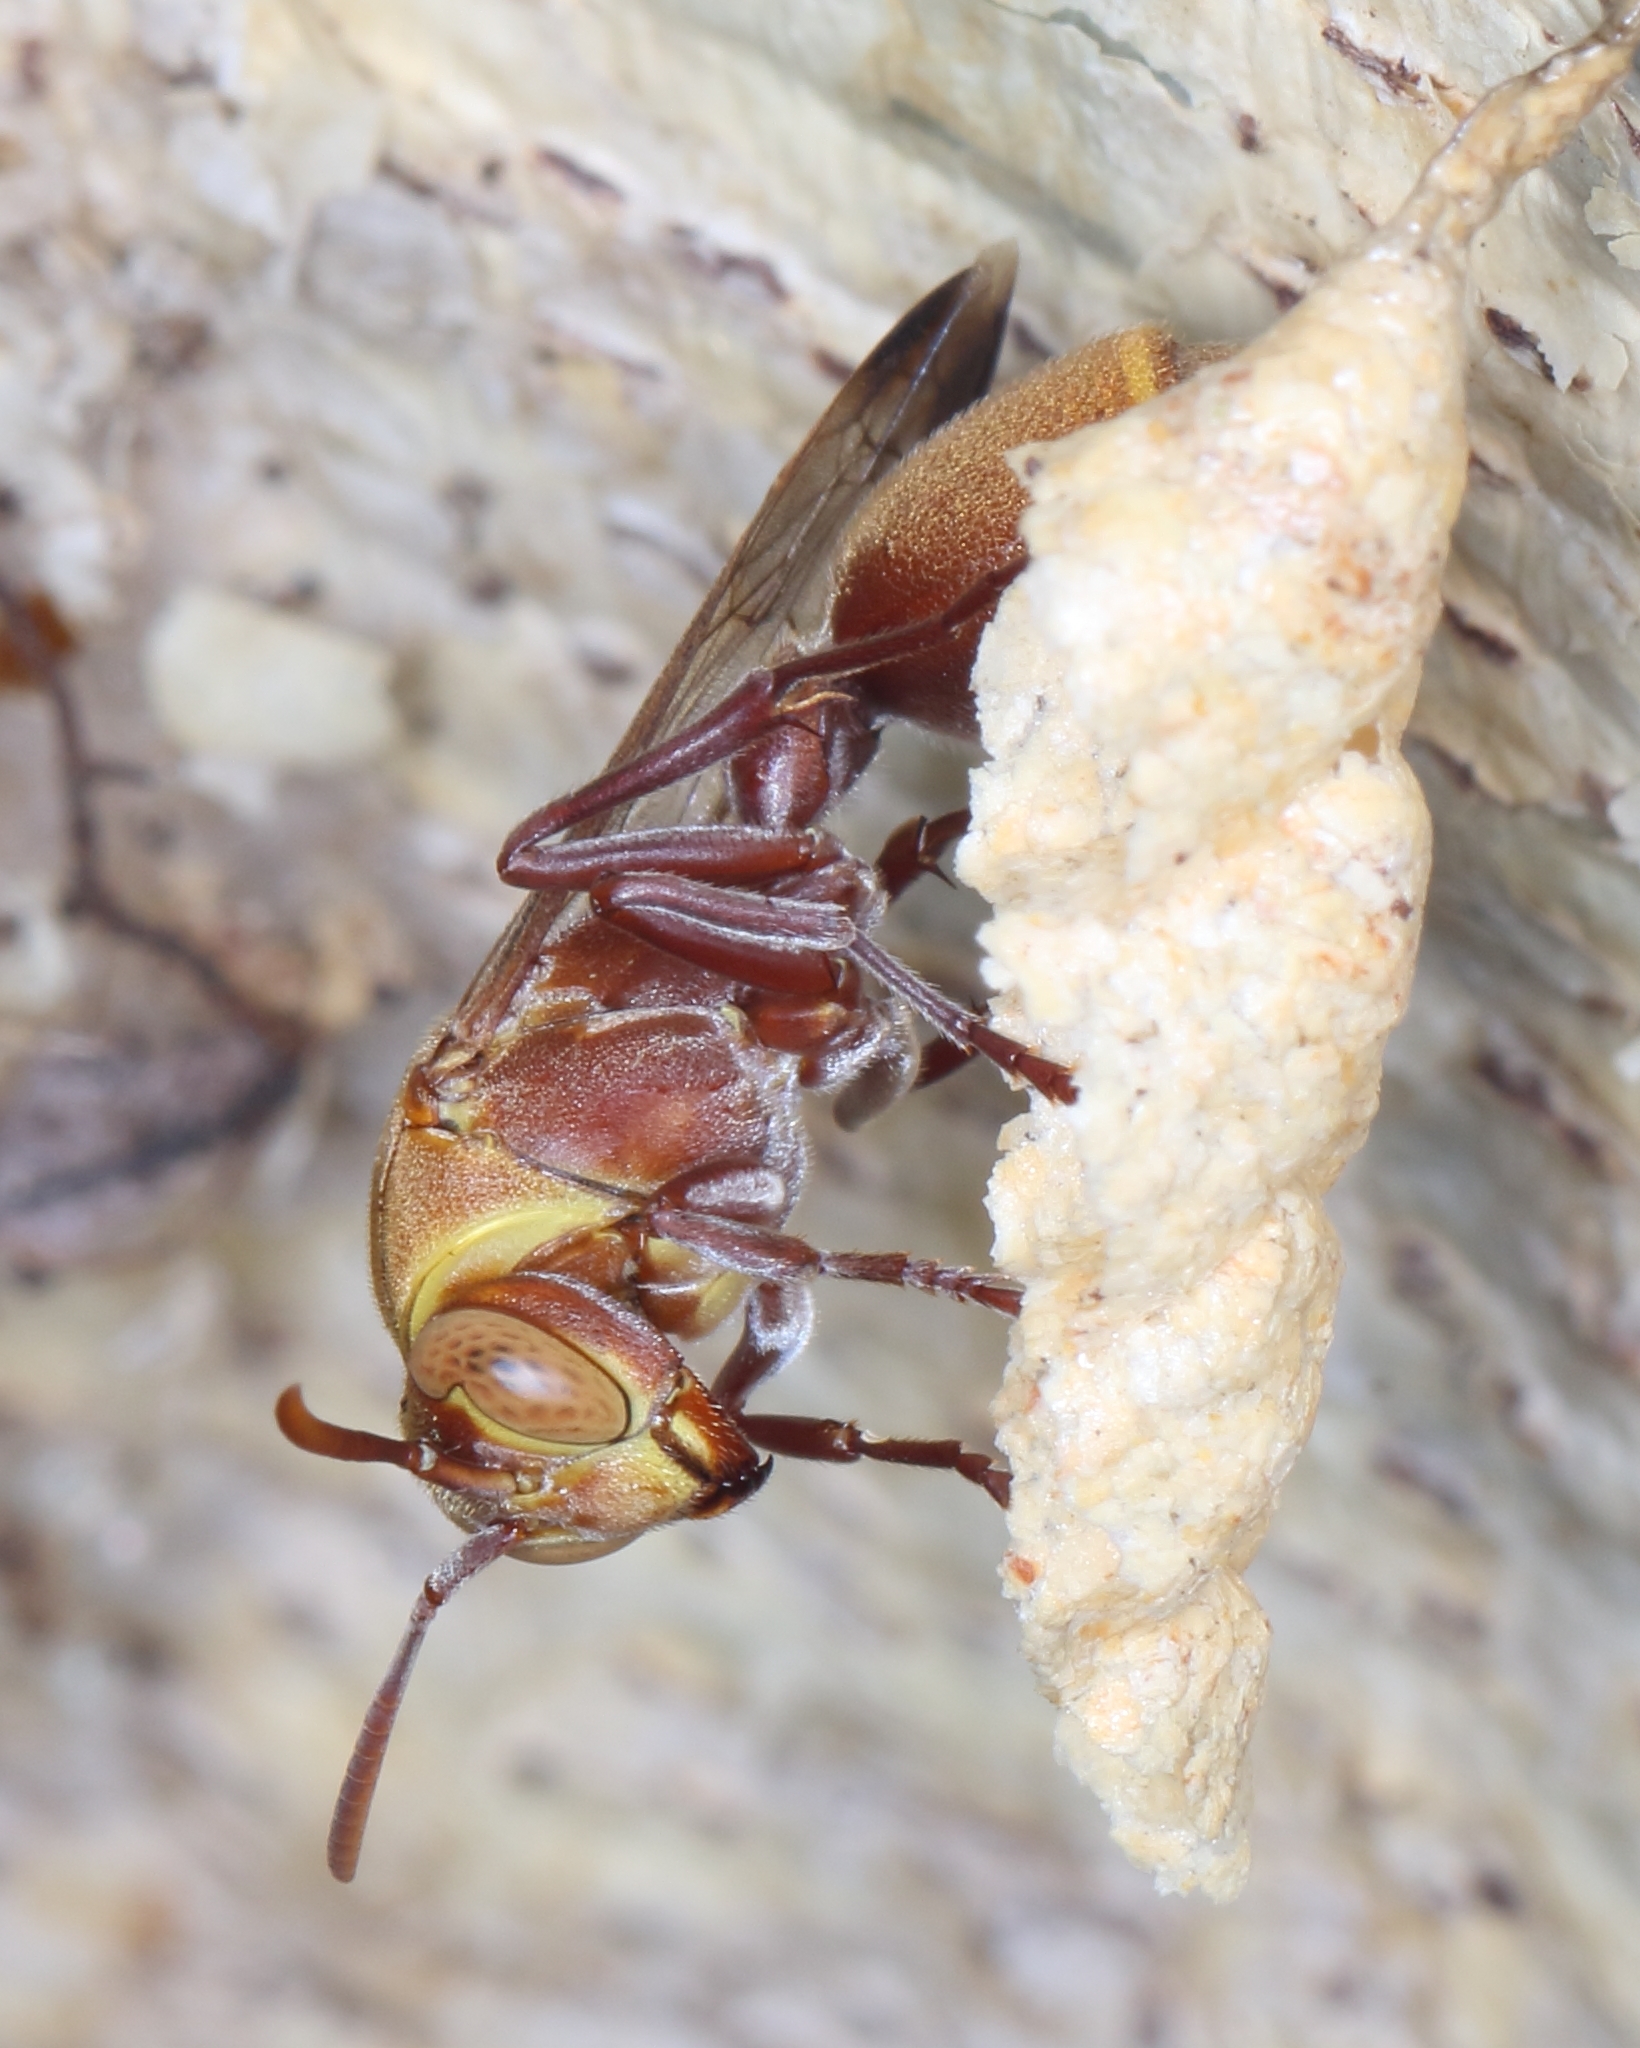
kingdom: Animalia
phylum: Arthropoda
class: Insecta
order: Hymenoptera
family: Vespidae
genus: Ropalidia
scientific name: Ropalidia distigma
